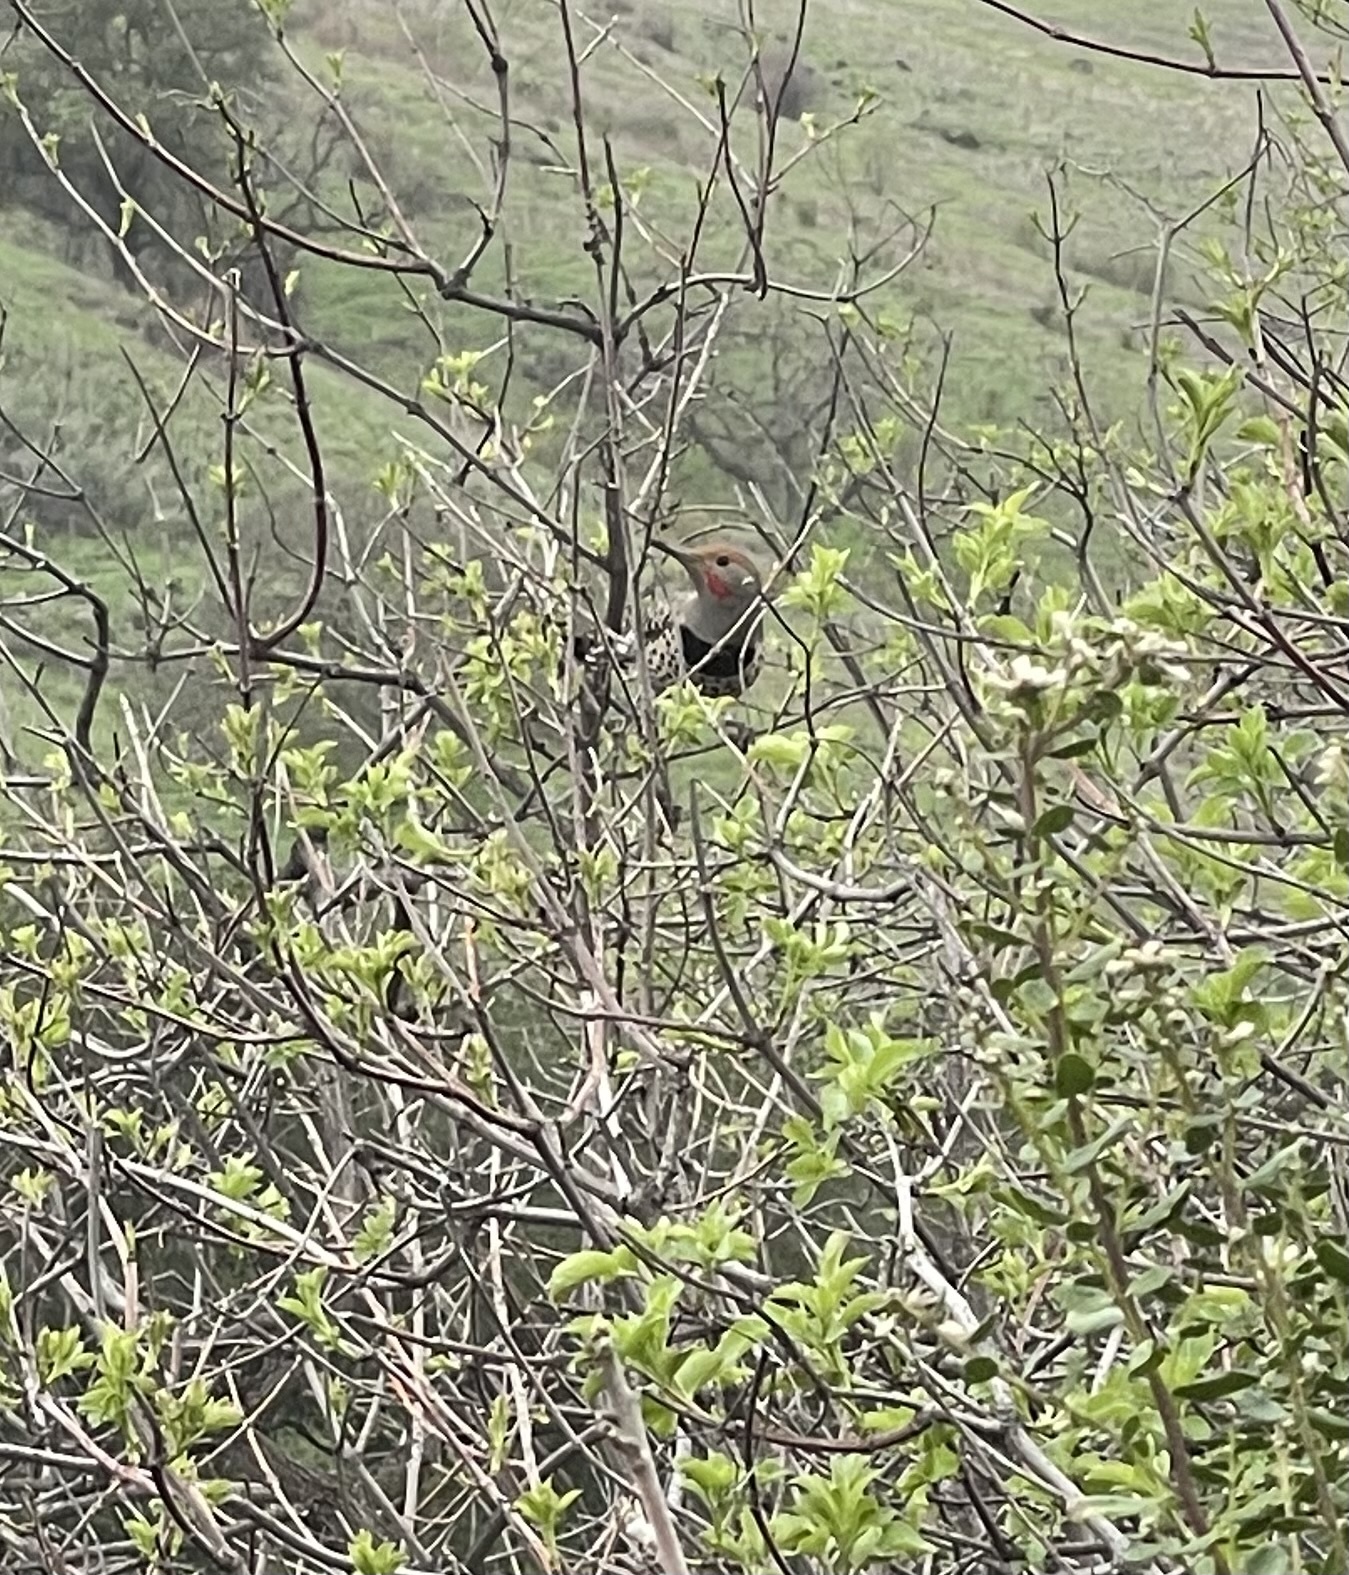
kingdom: Animalia
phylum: Chordata
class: Aves
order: Piciformes
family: Picidae
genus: Colaptes
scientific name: Colaptes auratus
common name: Northern flicker
